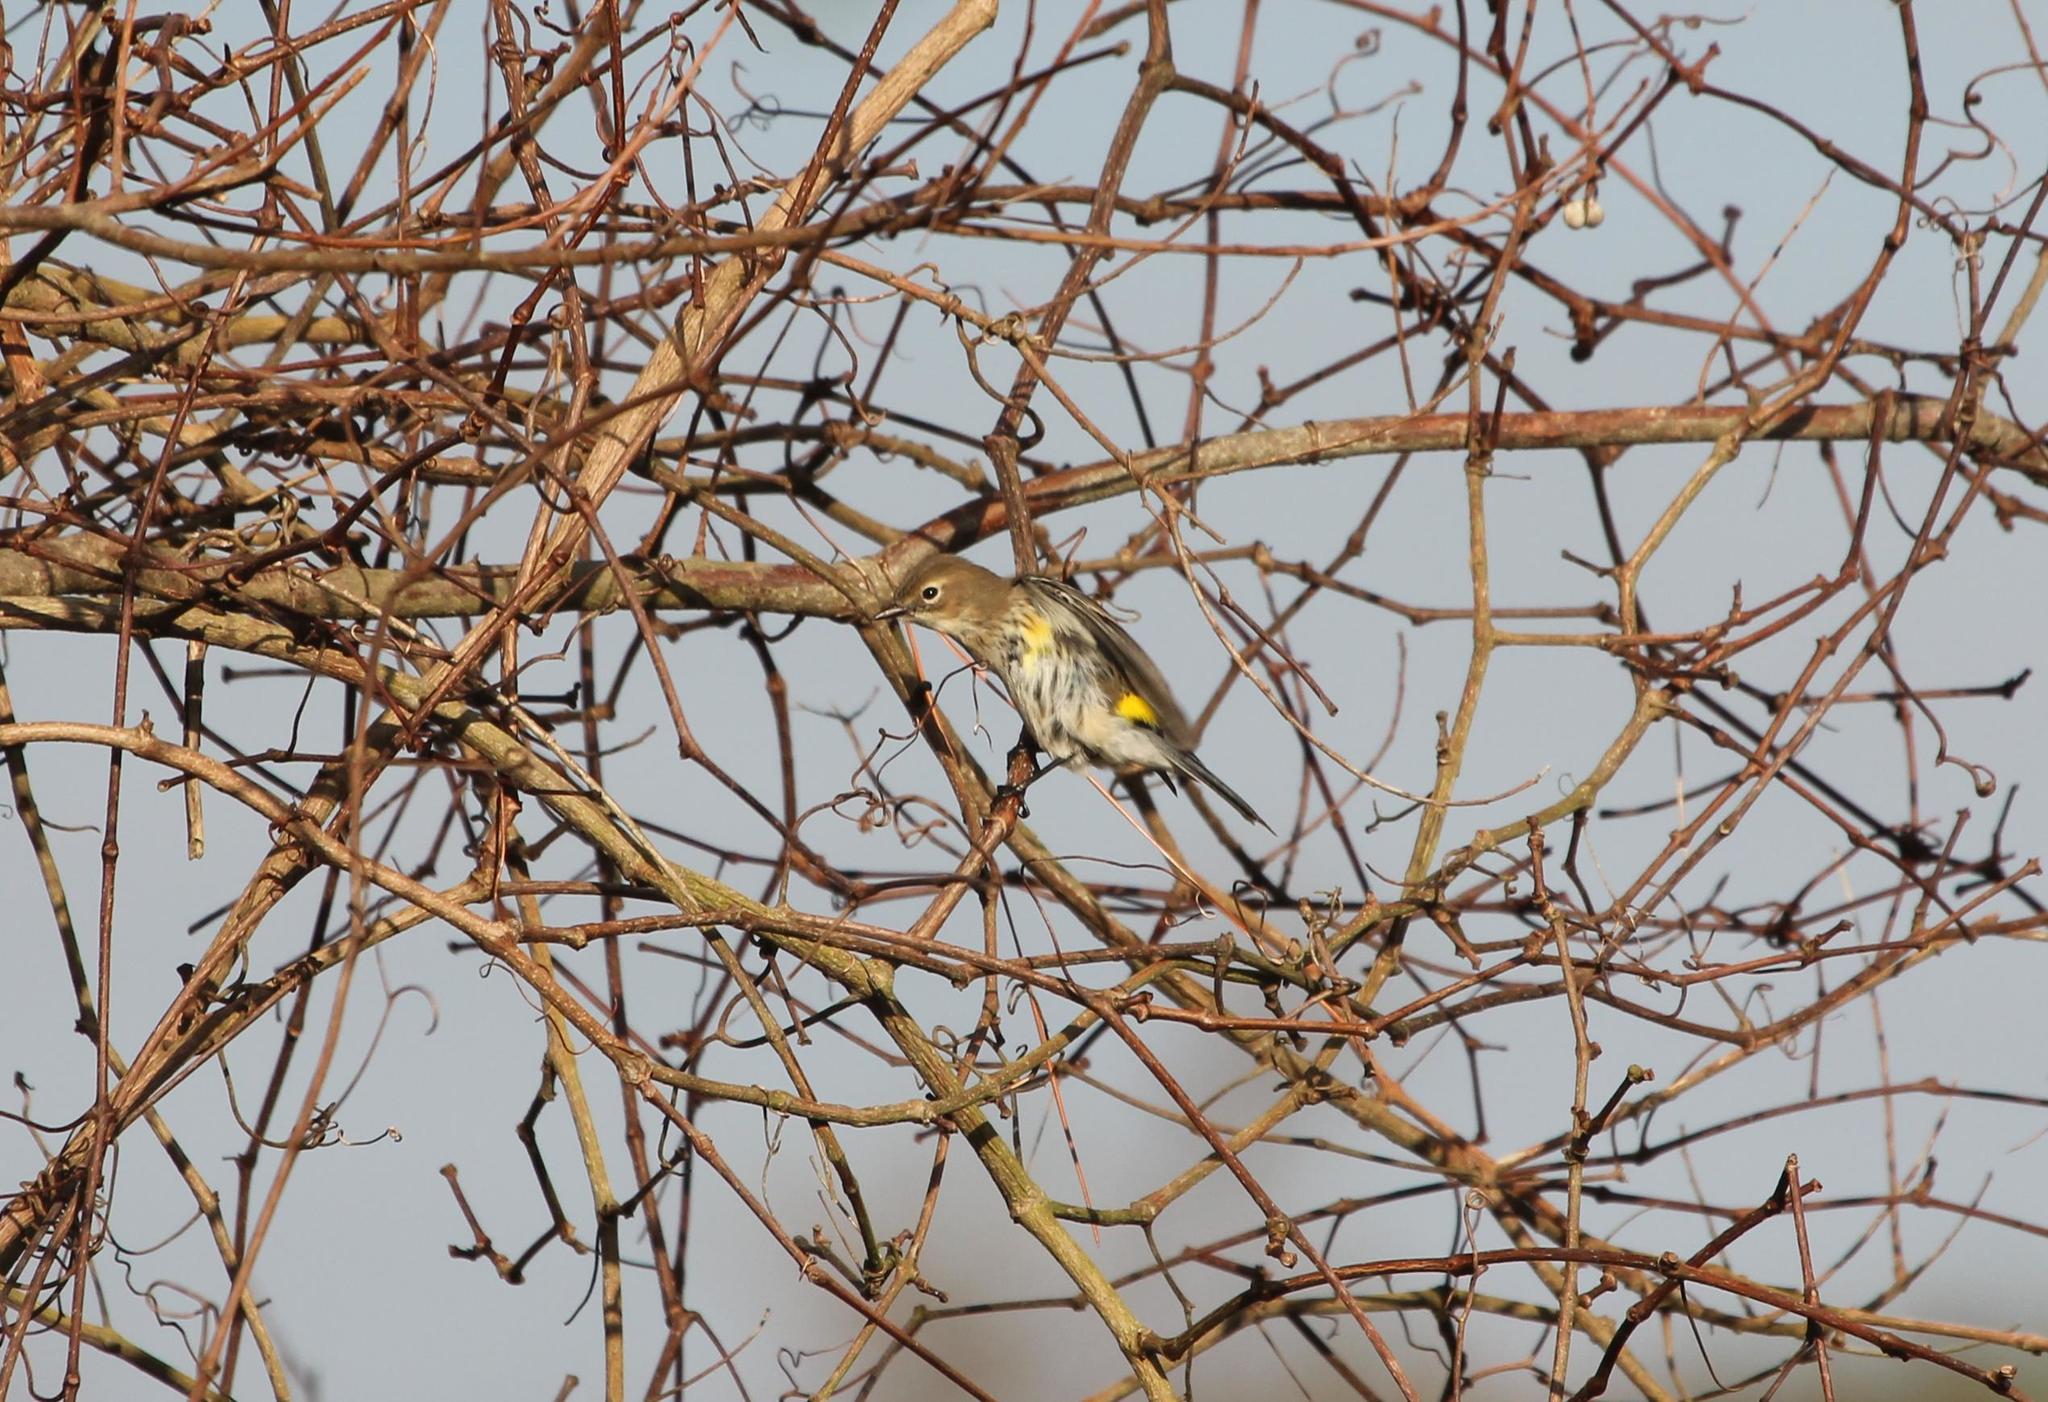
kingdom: Animalia
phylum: Chordata
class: Aves
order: Passeriformes
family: Parulidae
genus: Setophaga
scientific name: Setophaga coronata
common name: Myrtle warbler
